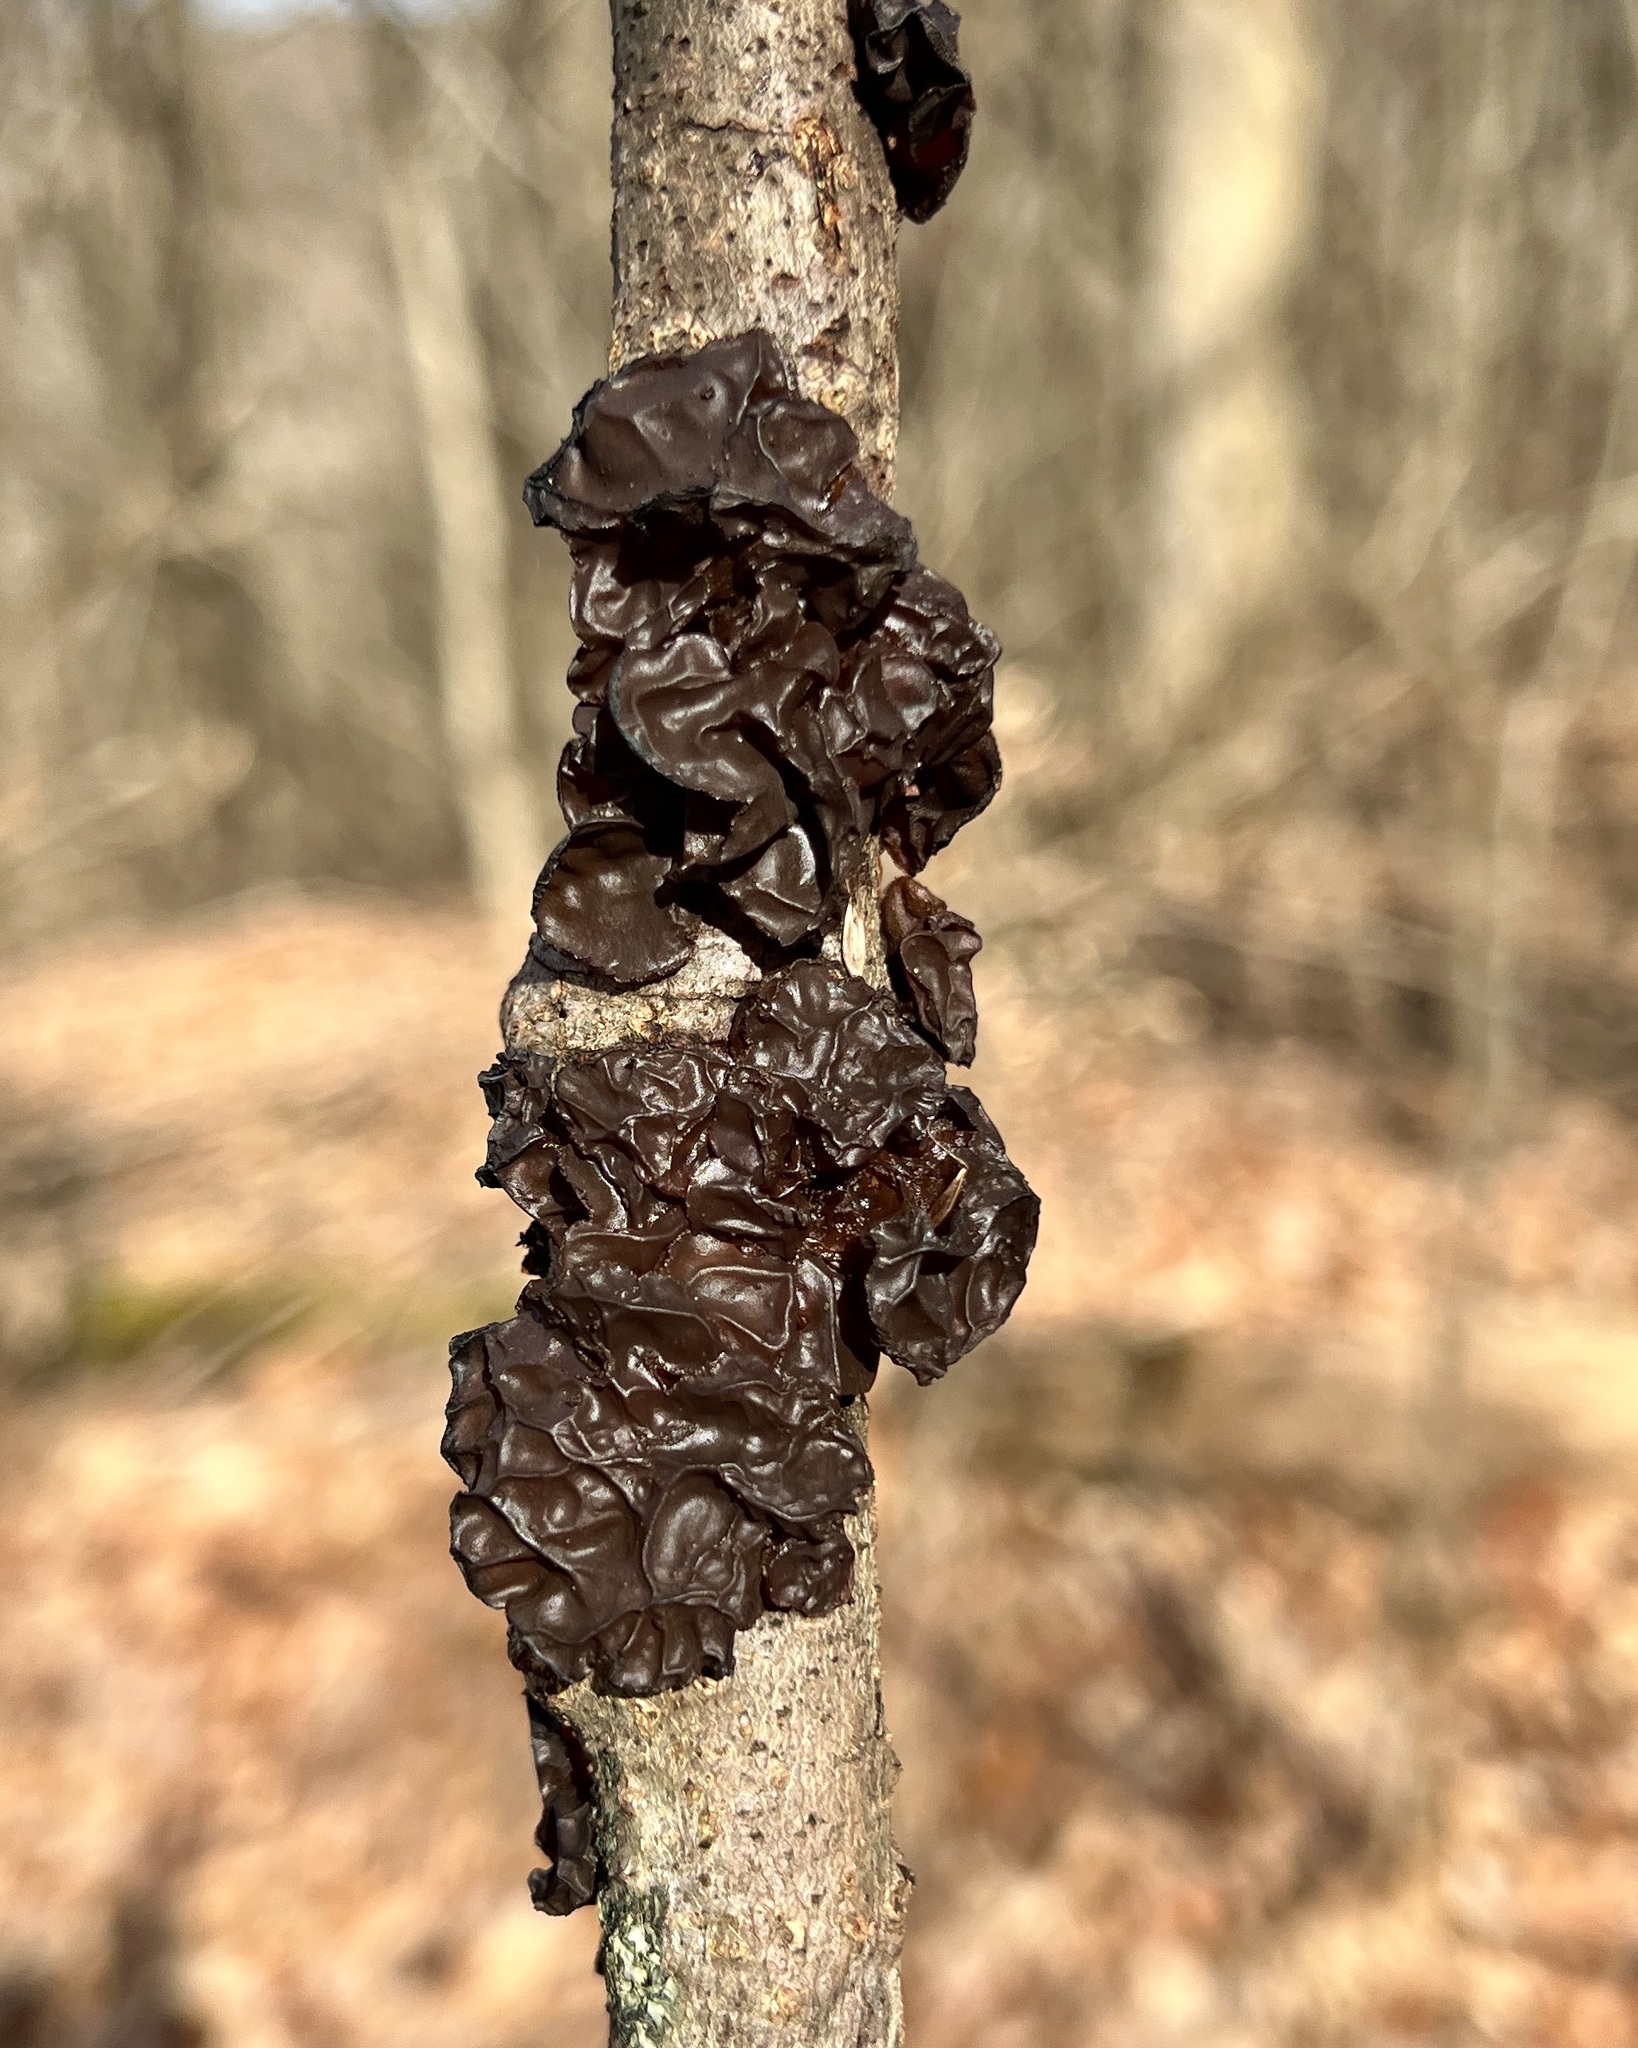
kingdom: Fungi
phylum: Basidiomycota
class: Agaricomycetes
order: Auriculariales
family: Auriculariaceae
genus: Exidia
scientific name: Exidia
